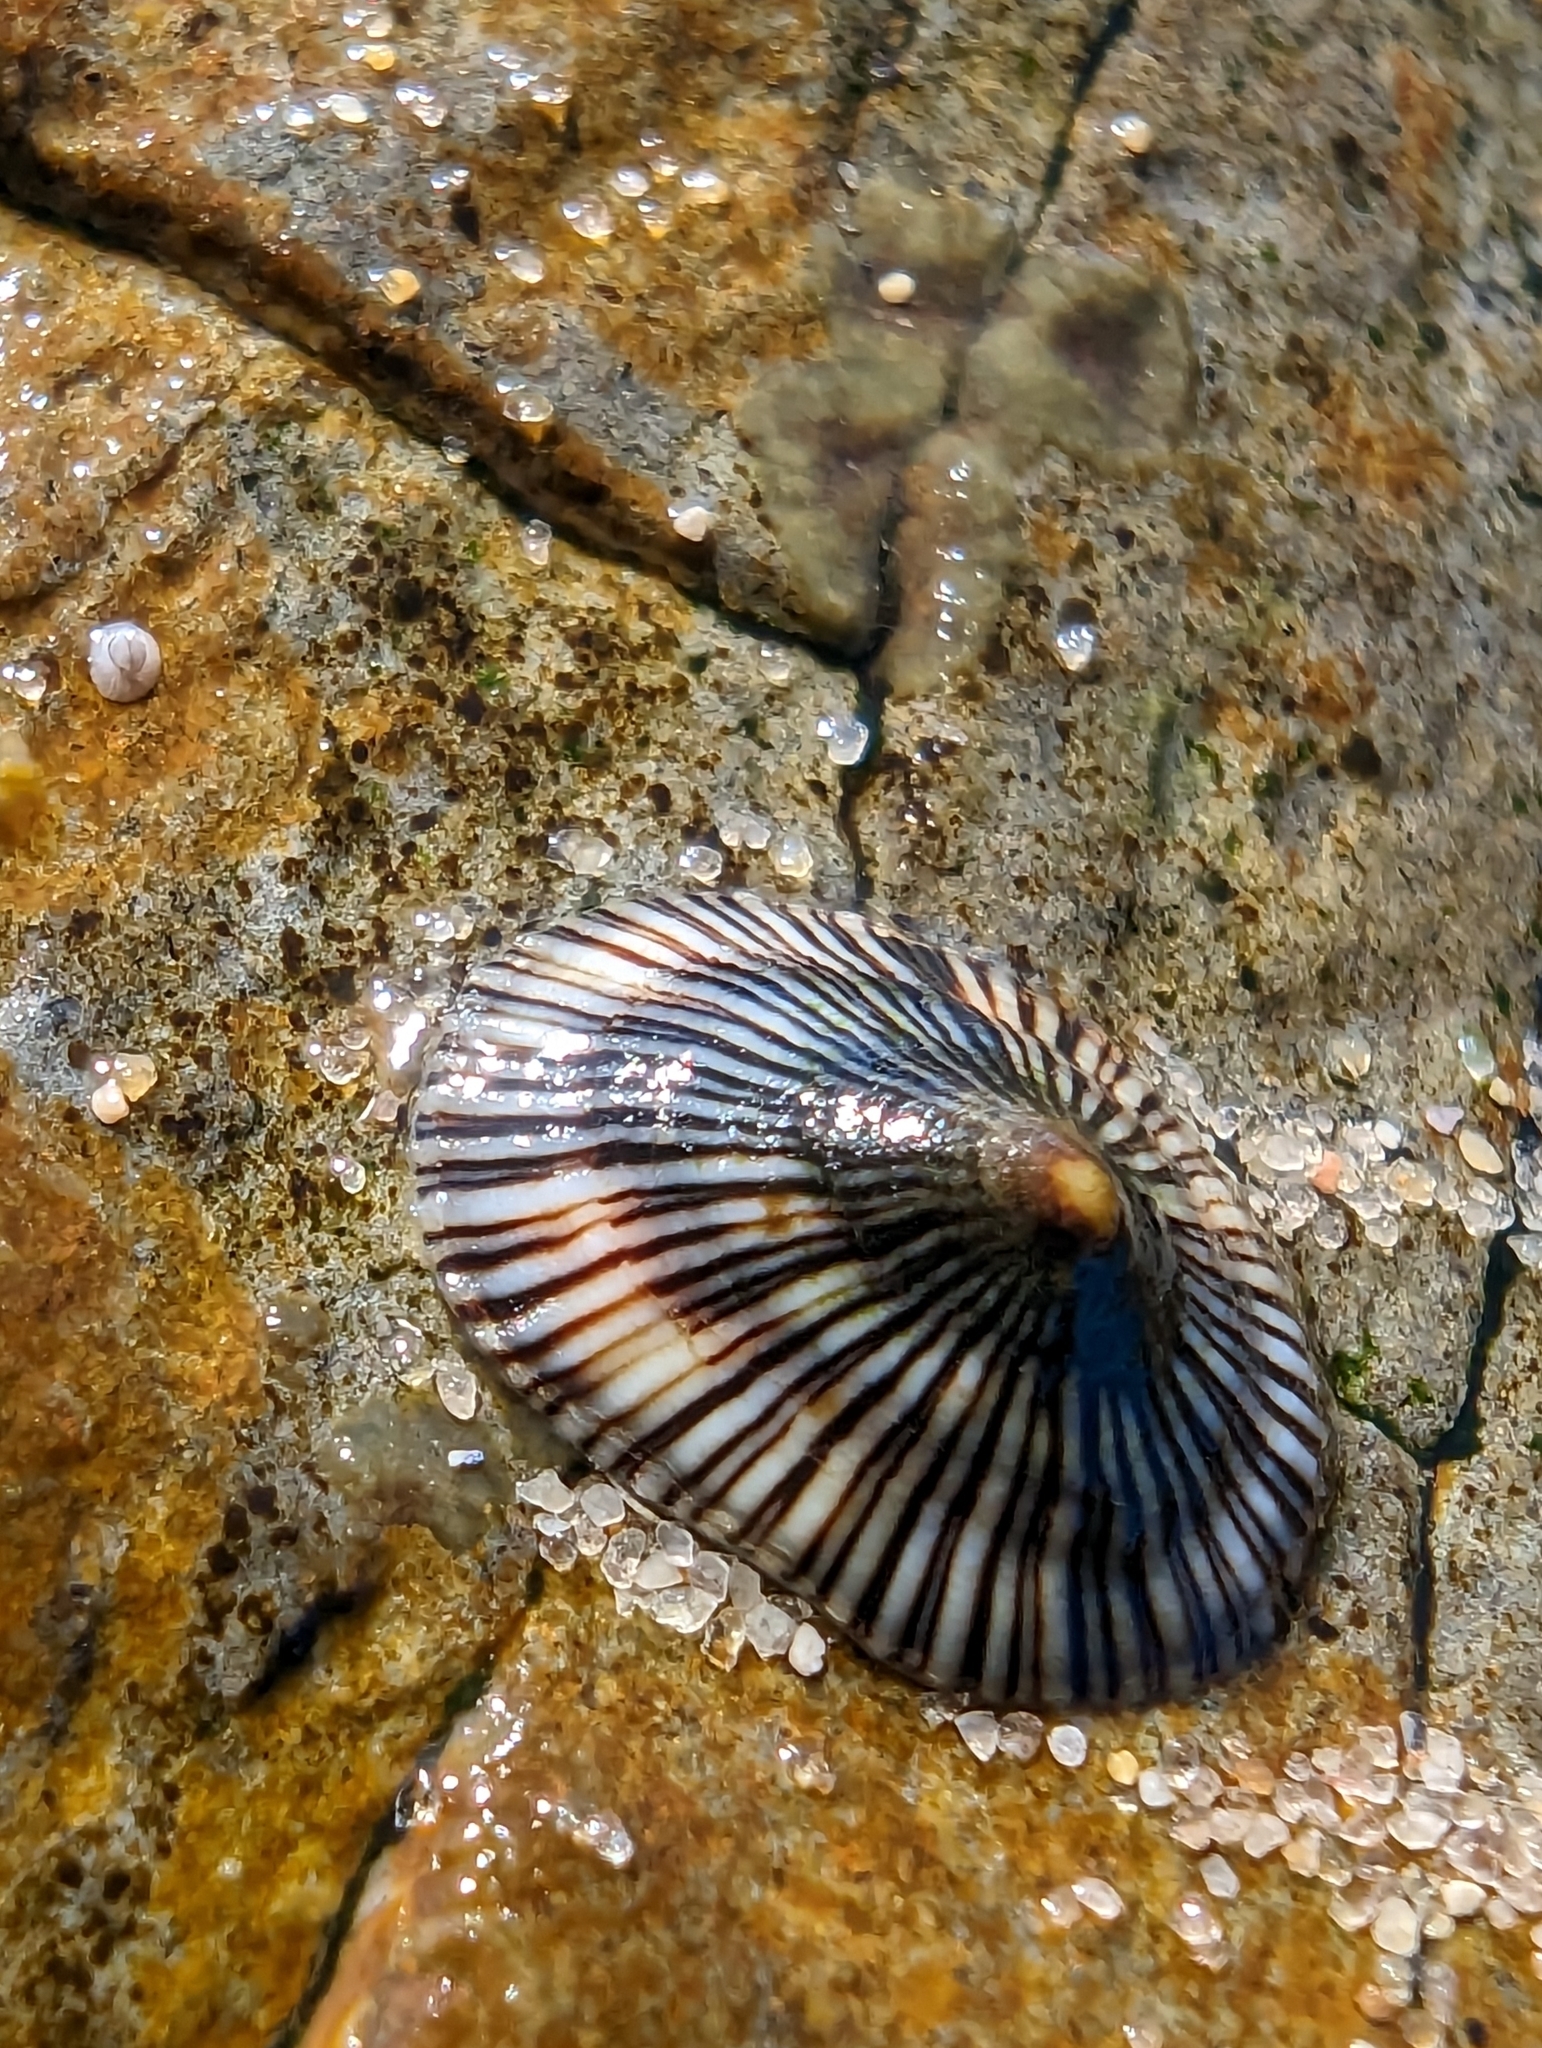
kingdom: Animalia
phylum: Mollusca
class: Gastropoda
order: Siphonariida
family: Siphonariidae
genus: Siphonaria
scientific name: Siphonaria funiculata
